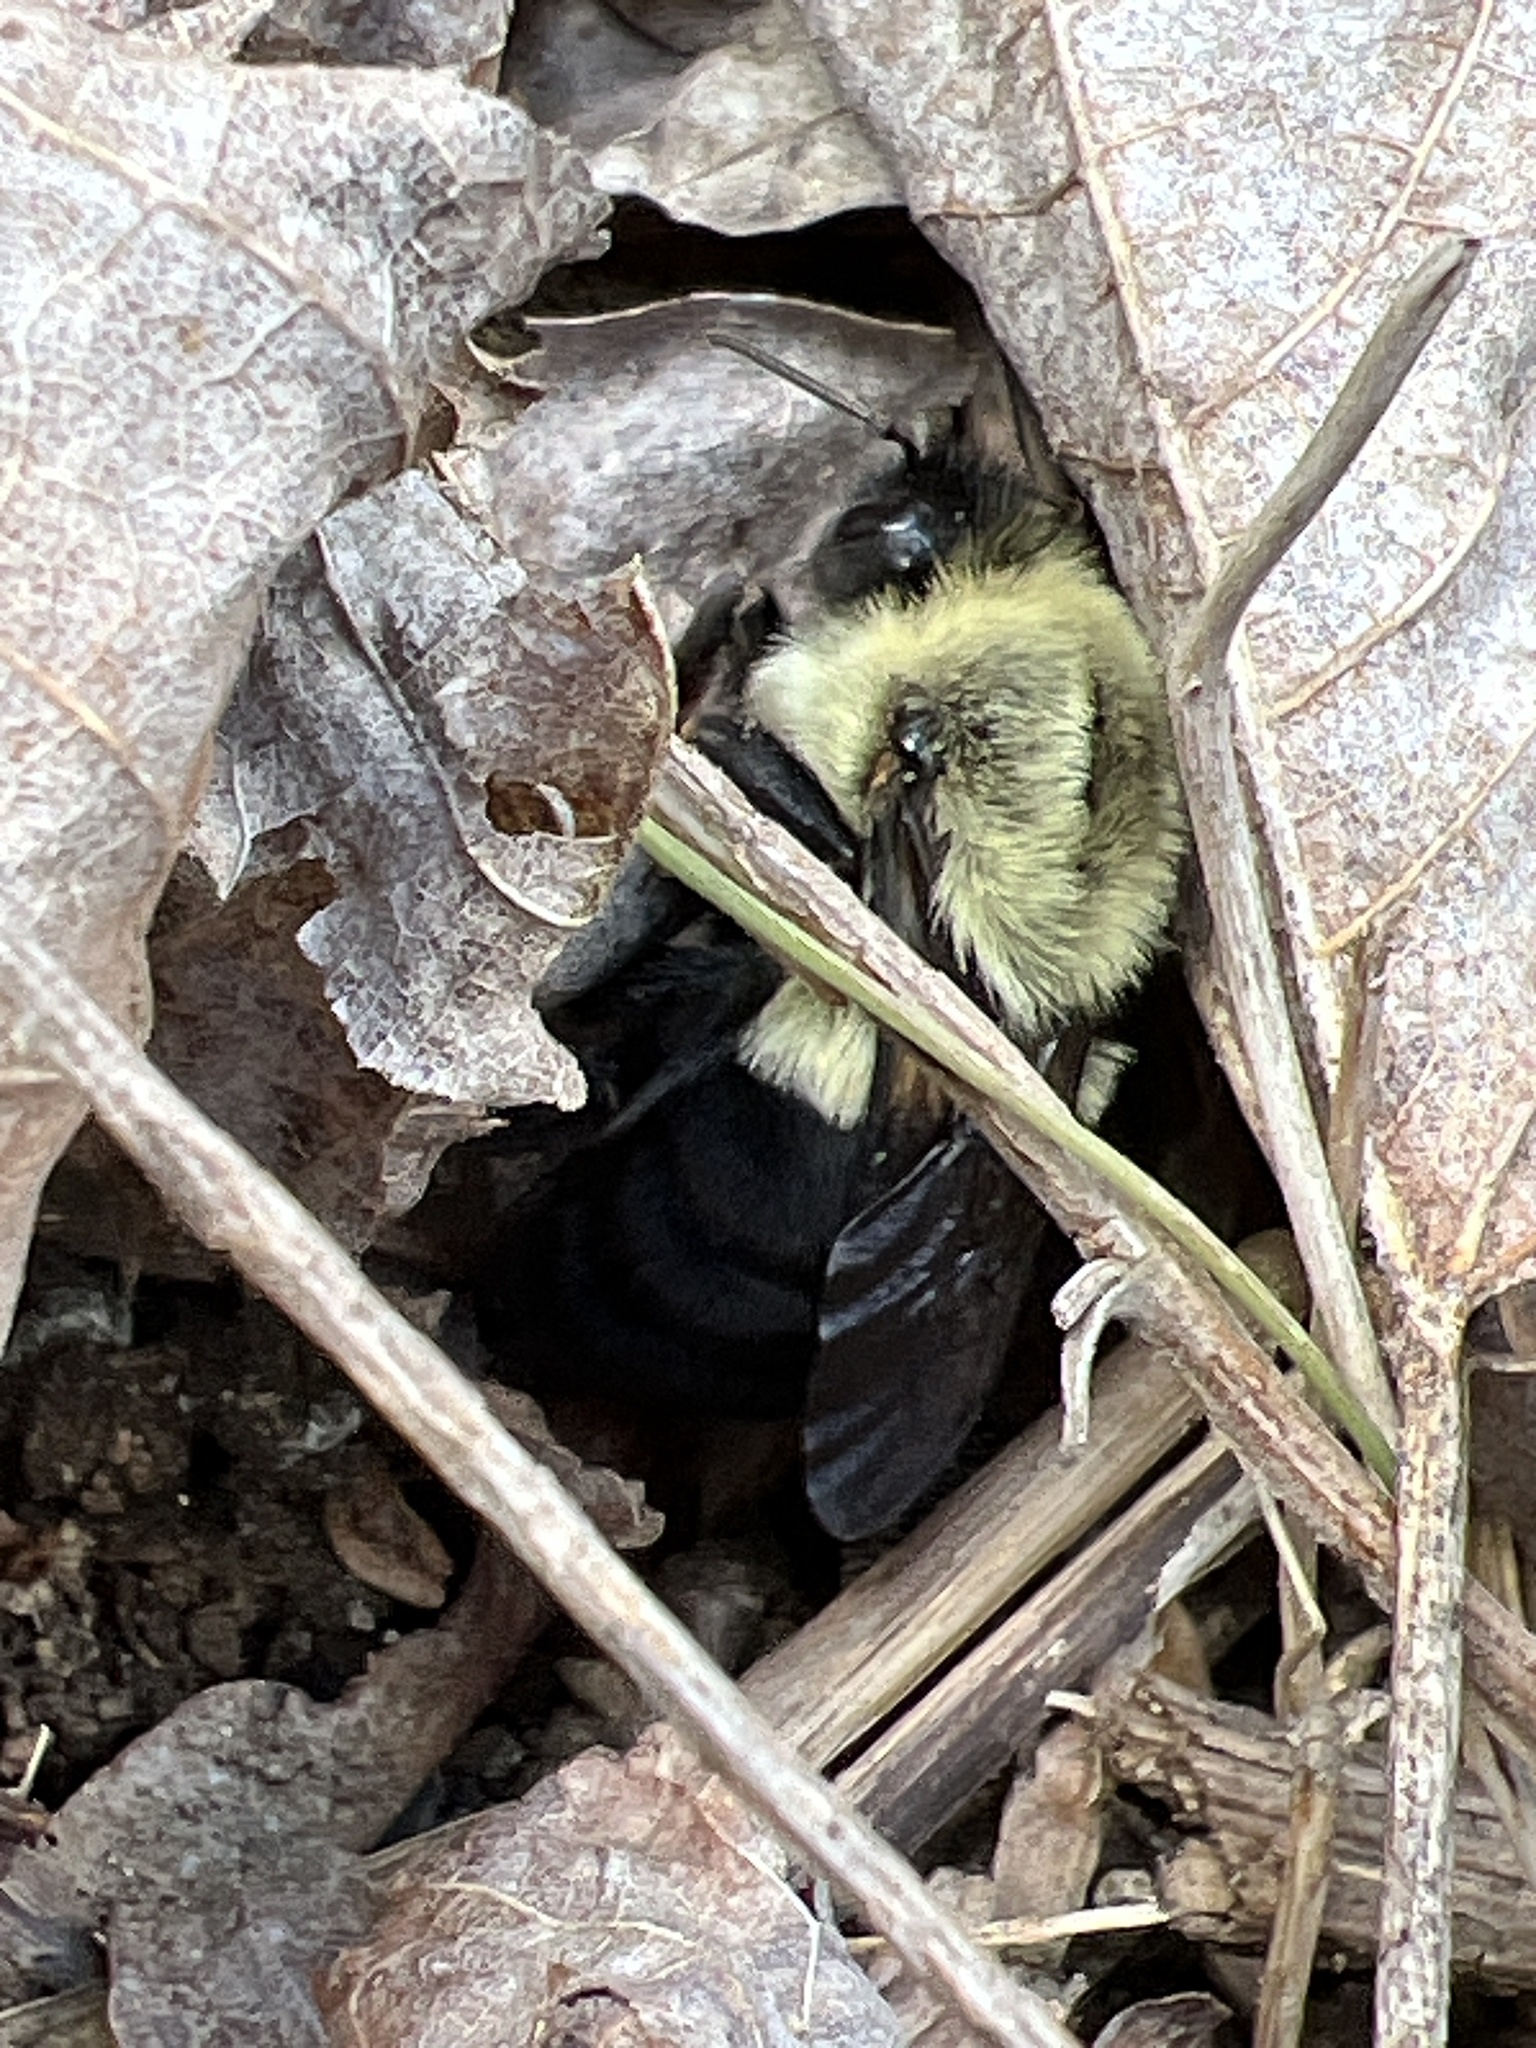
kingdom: Animalia
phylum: Arthropoda
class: Insecta
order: Hymenoptera
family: Apidae
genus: Bombus
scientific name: Bombus impatiens
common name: Common eastern bumble bee
